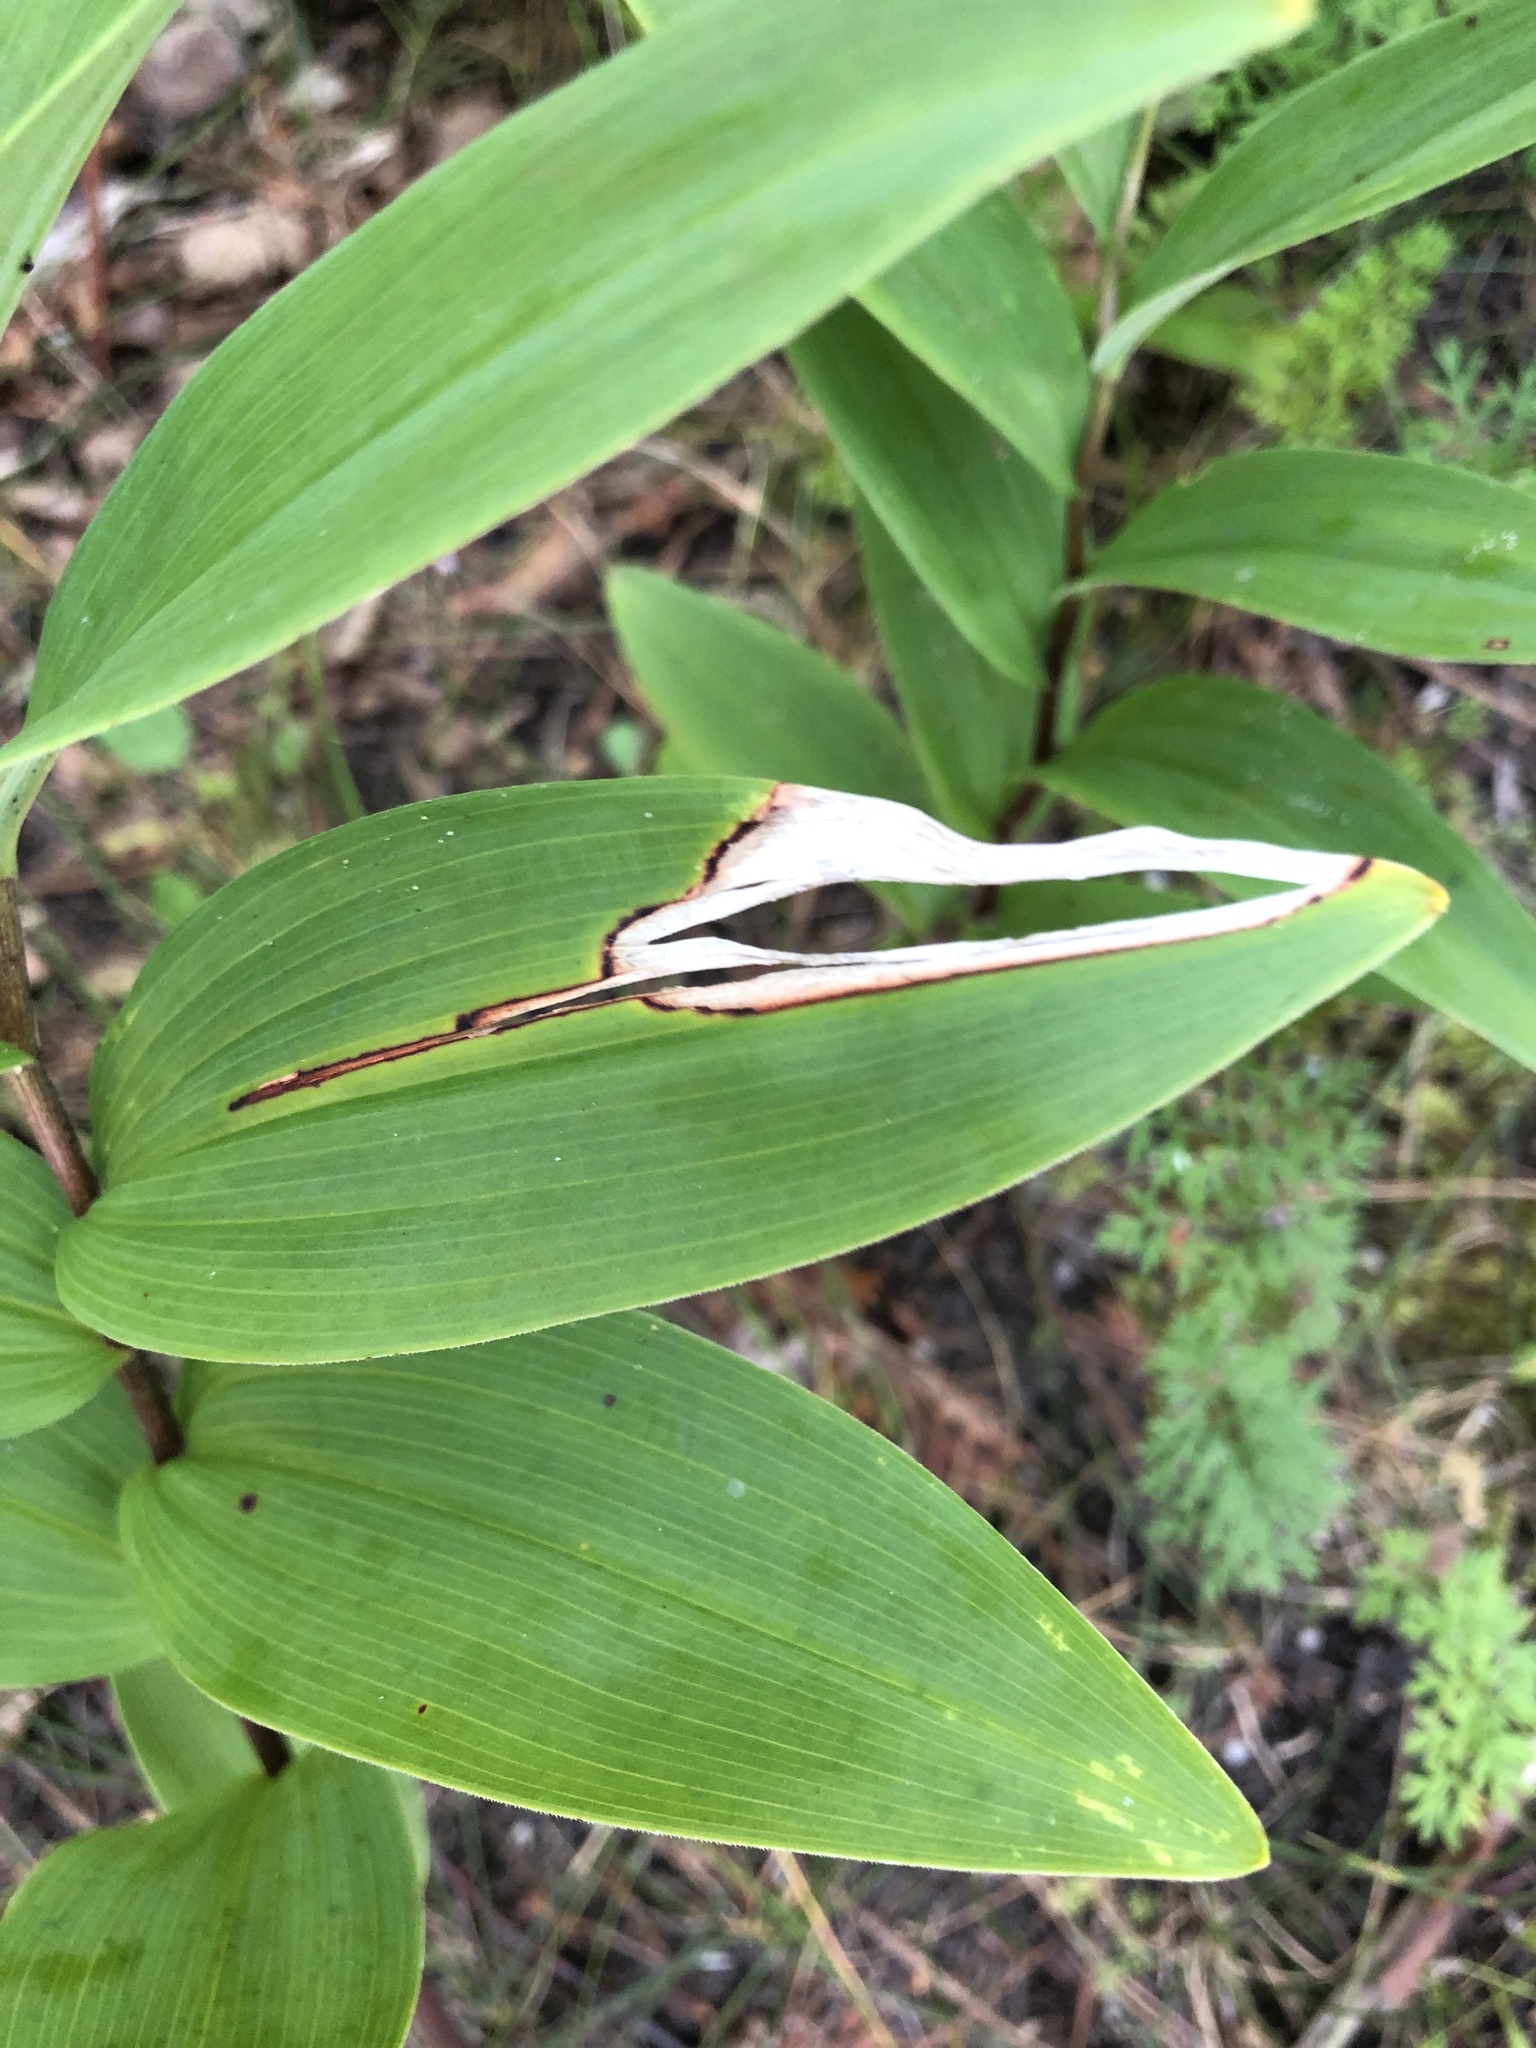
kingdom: Animalia
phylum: Arthropoda
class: Insecta
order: Diptera
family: Scathophagidae
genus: Neochirosia
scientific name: Neochirosia nuda
